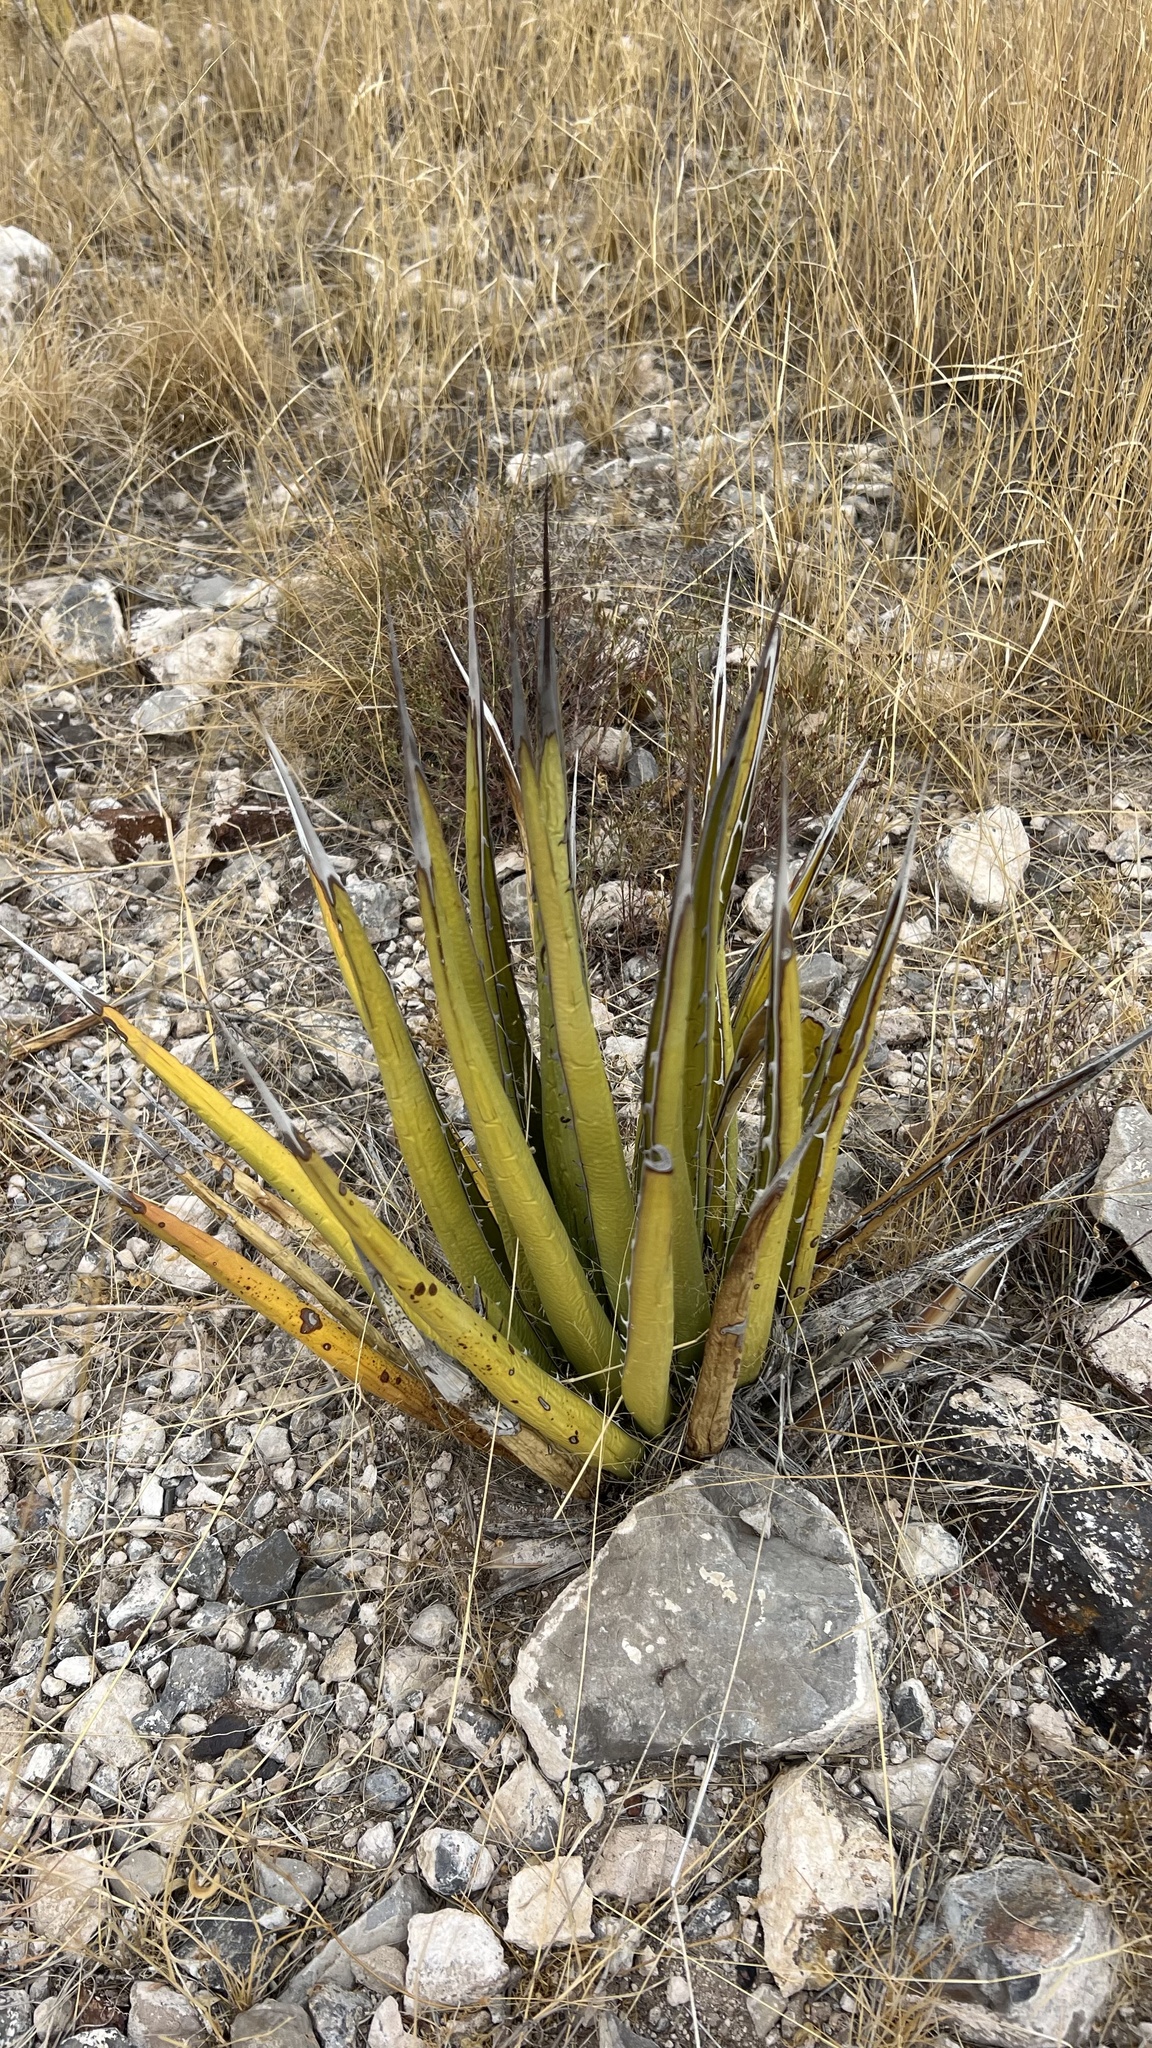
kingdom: Plantae
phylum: Tracheophyta
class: Liliopsida
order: Asparagales
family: Asparagaceae
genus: Agave
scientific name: Agave lechuguilla
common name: Lecheguilla agave
